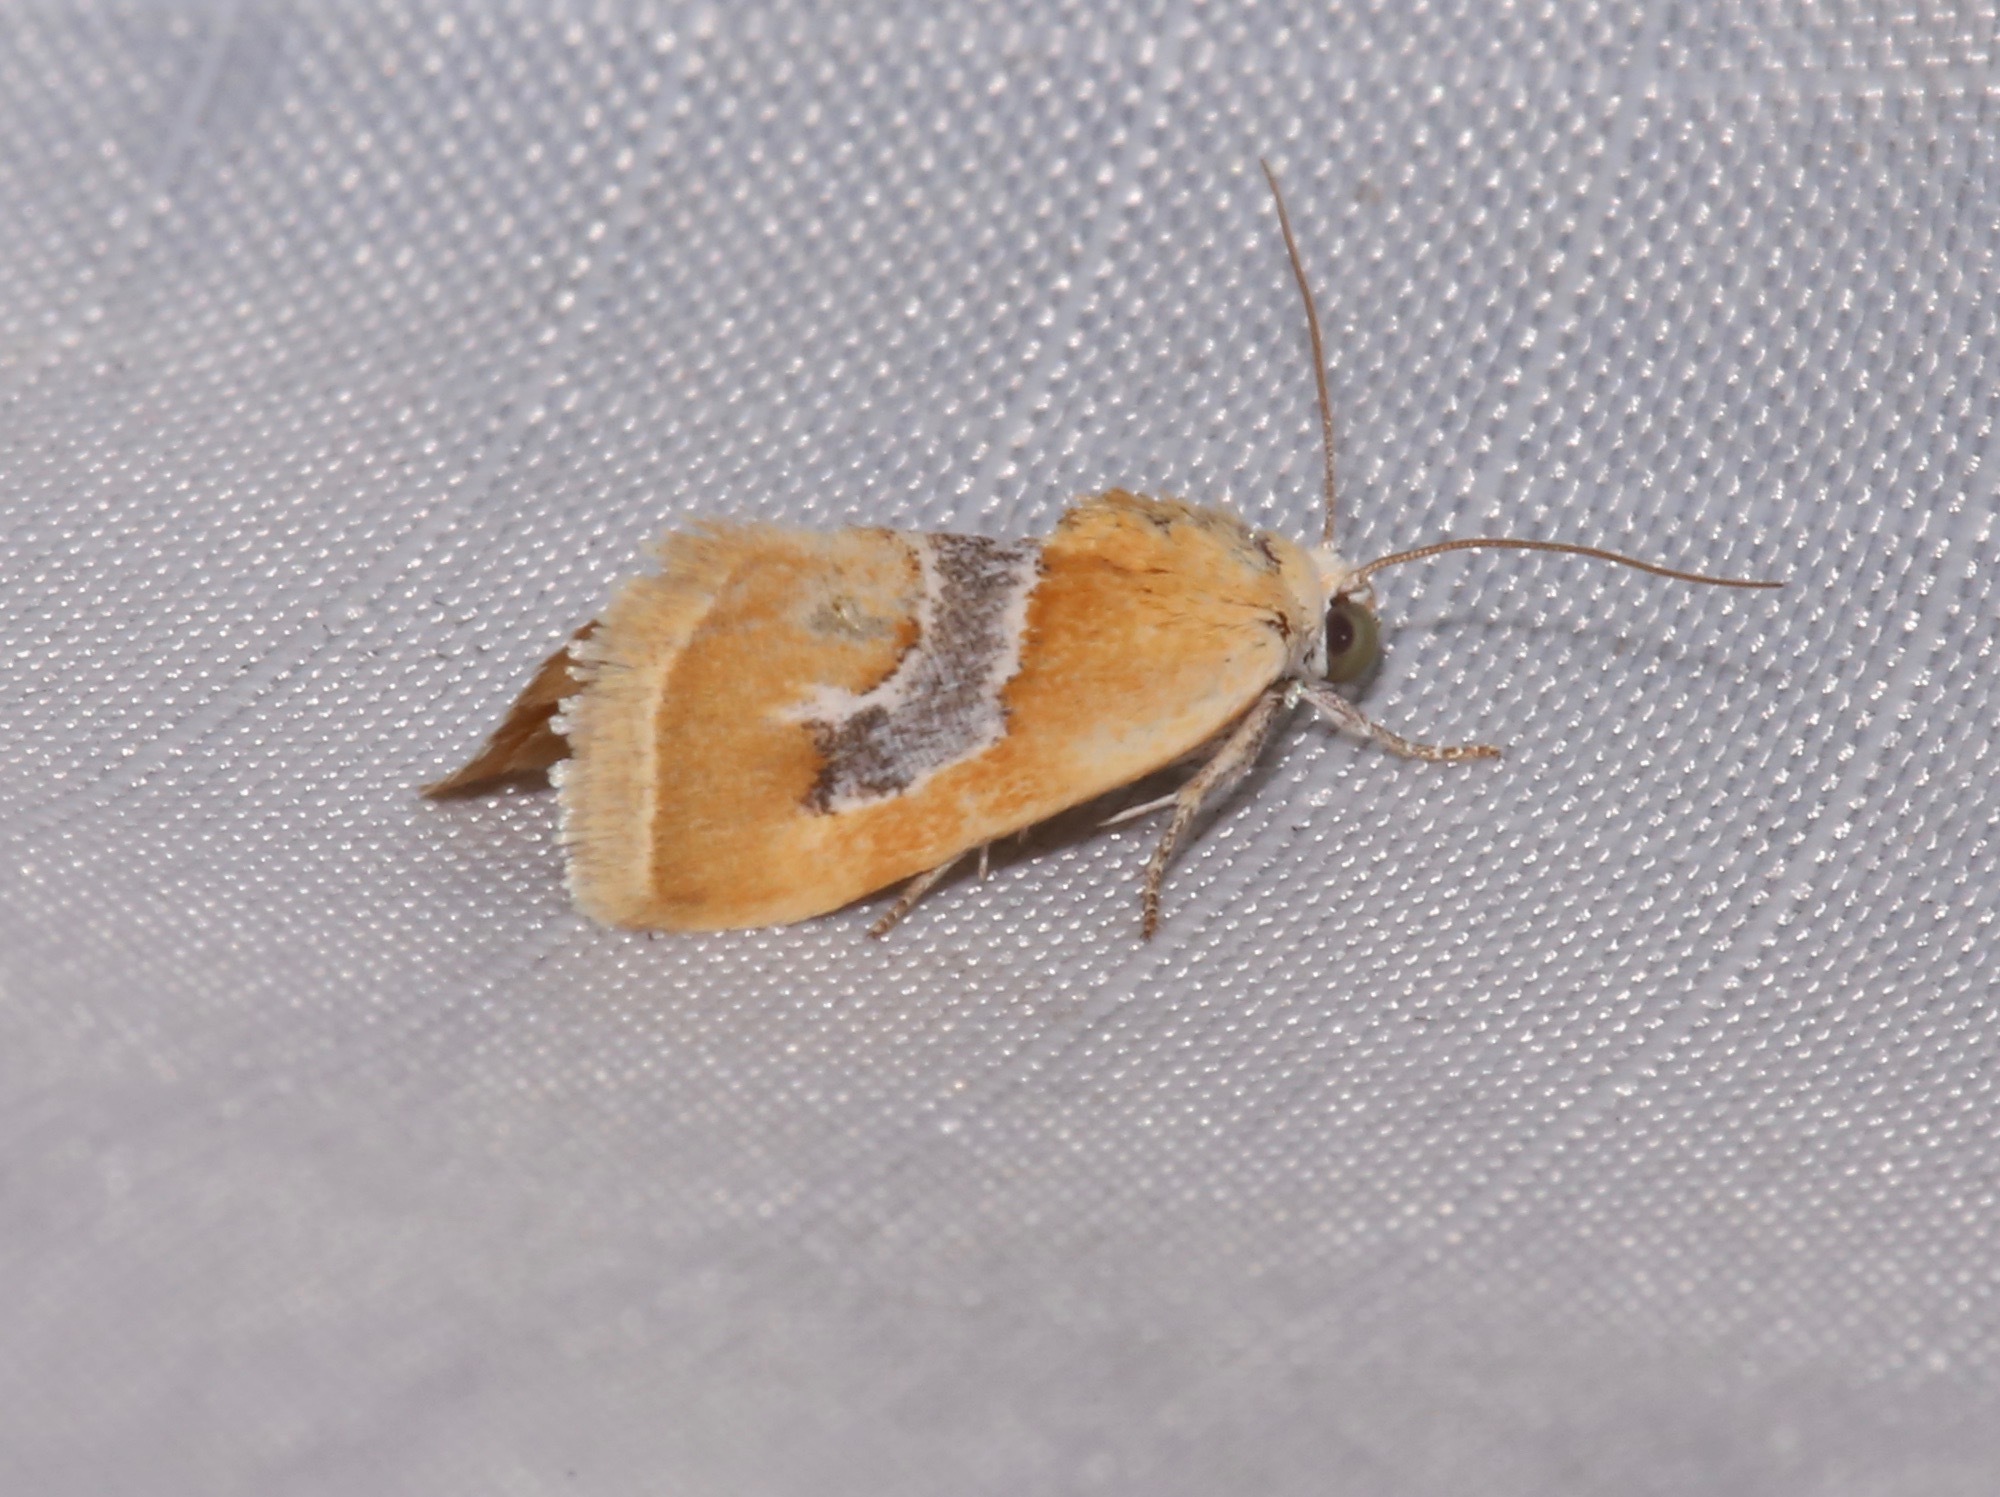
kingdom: Animalia
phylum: Arthropoda
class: Insecta
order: Lepidoptera
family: Noctuidae
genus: Ponometia
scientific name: Ponometia venustula
